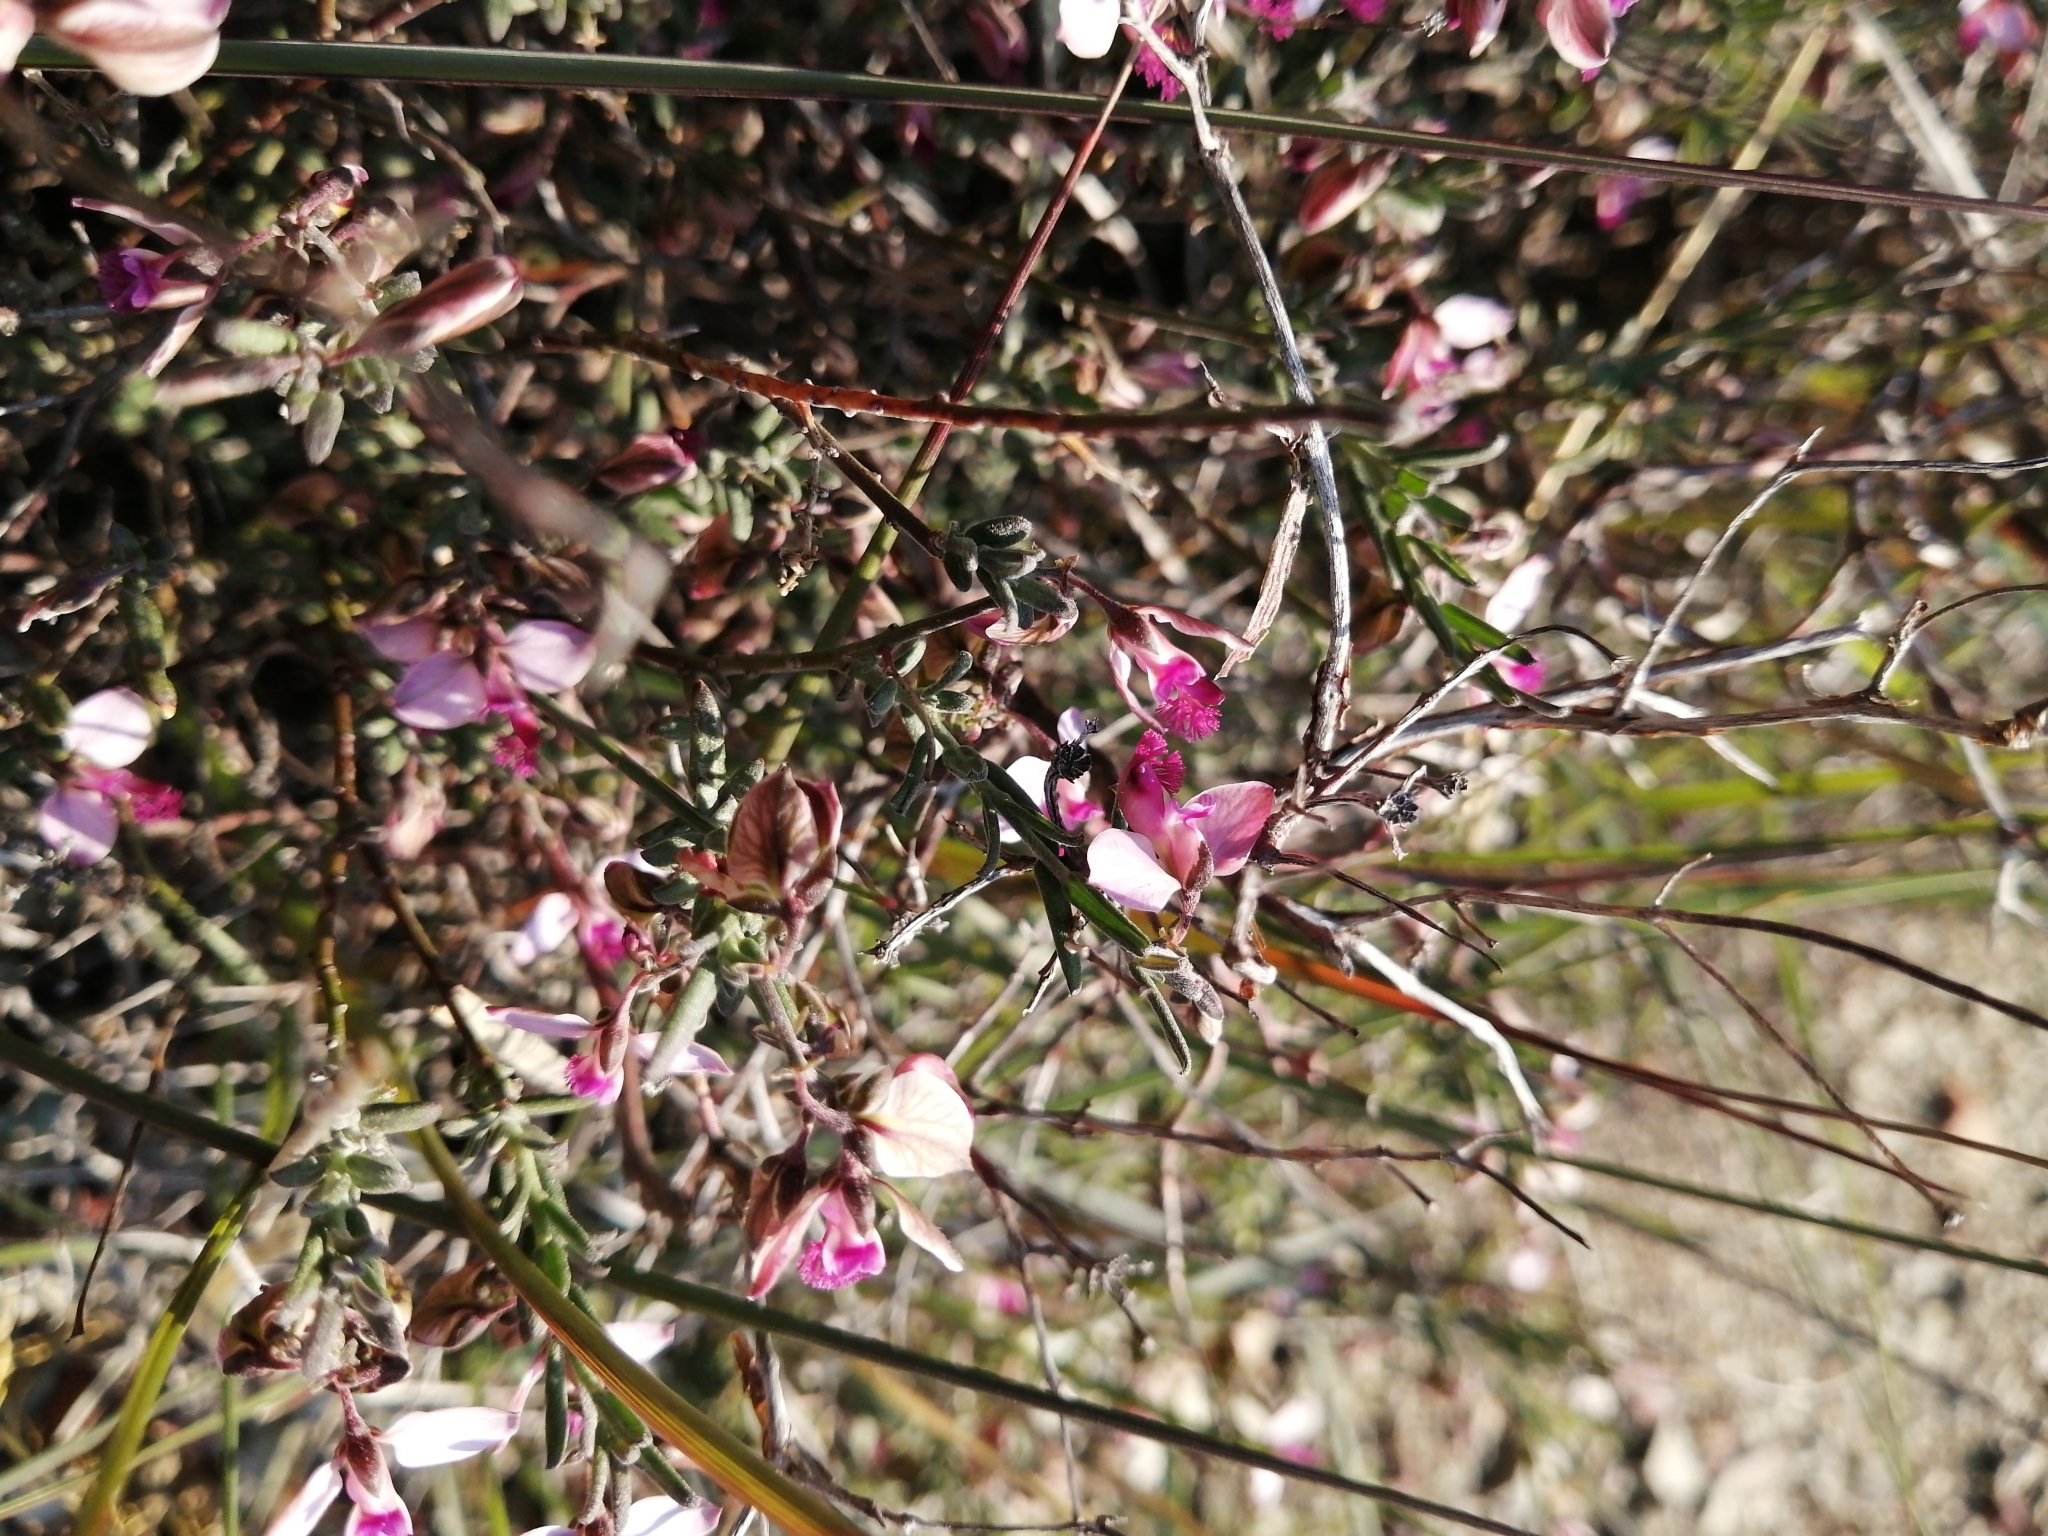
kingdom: Plantae
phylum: Tracheophyta
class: Magnoliopsida
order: Fabales
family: Polygalaceae
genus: Polygala
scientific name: Polygala scabra
